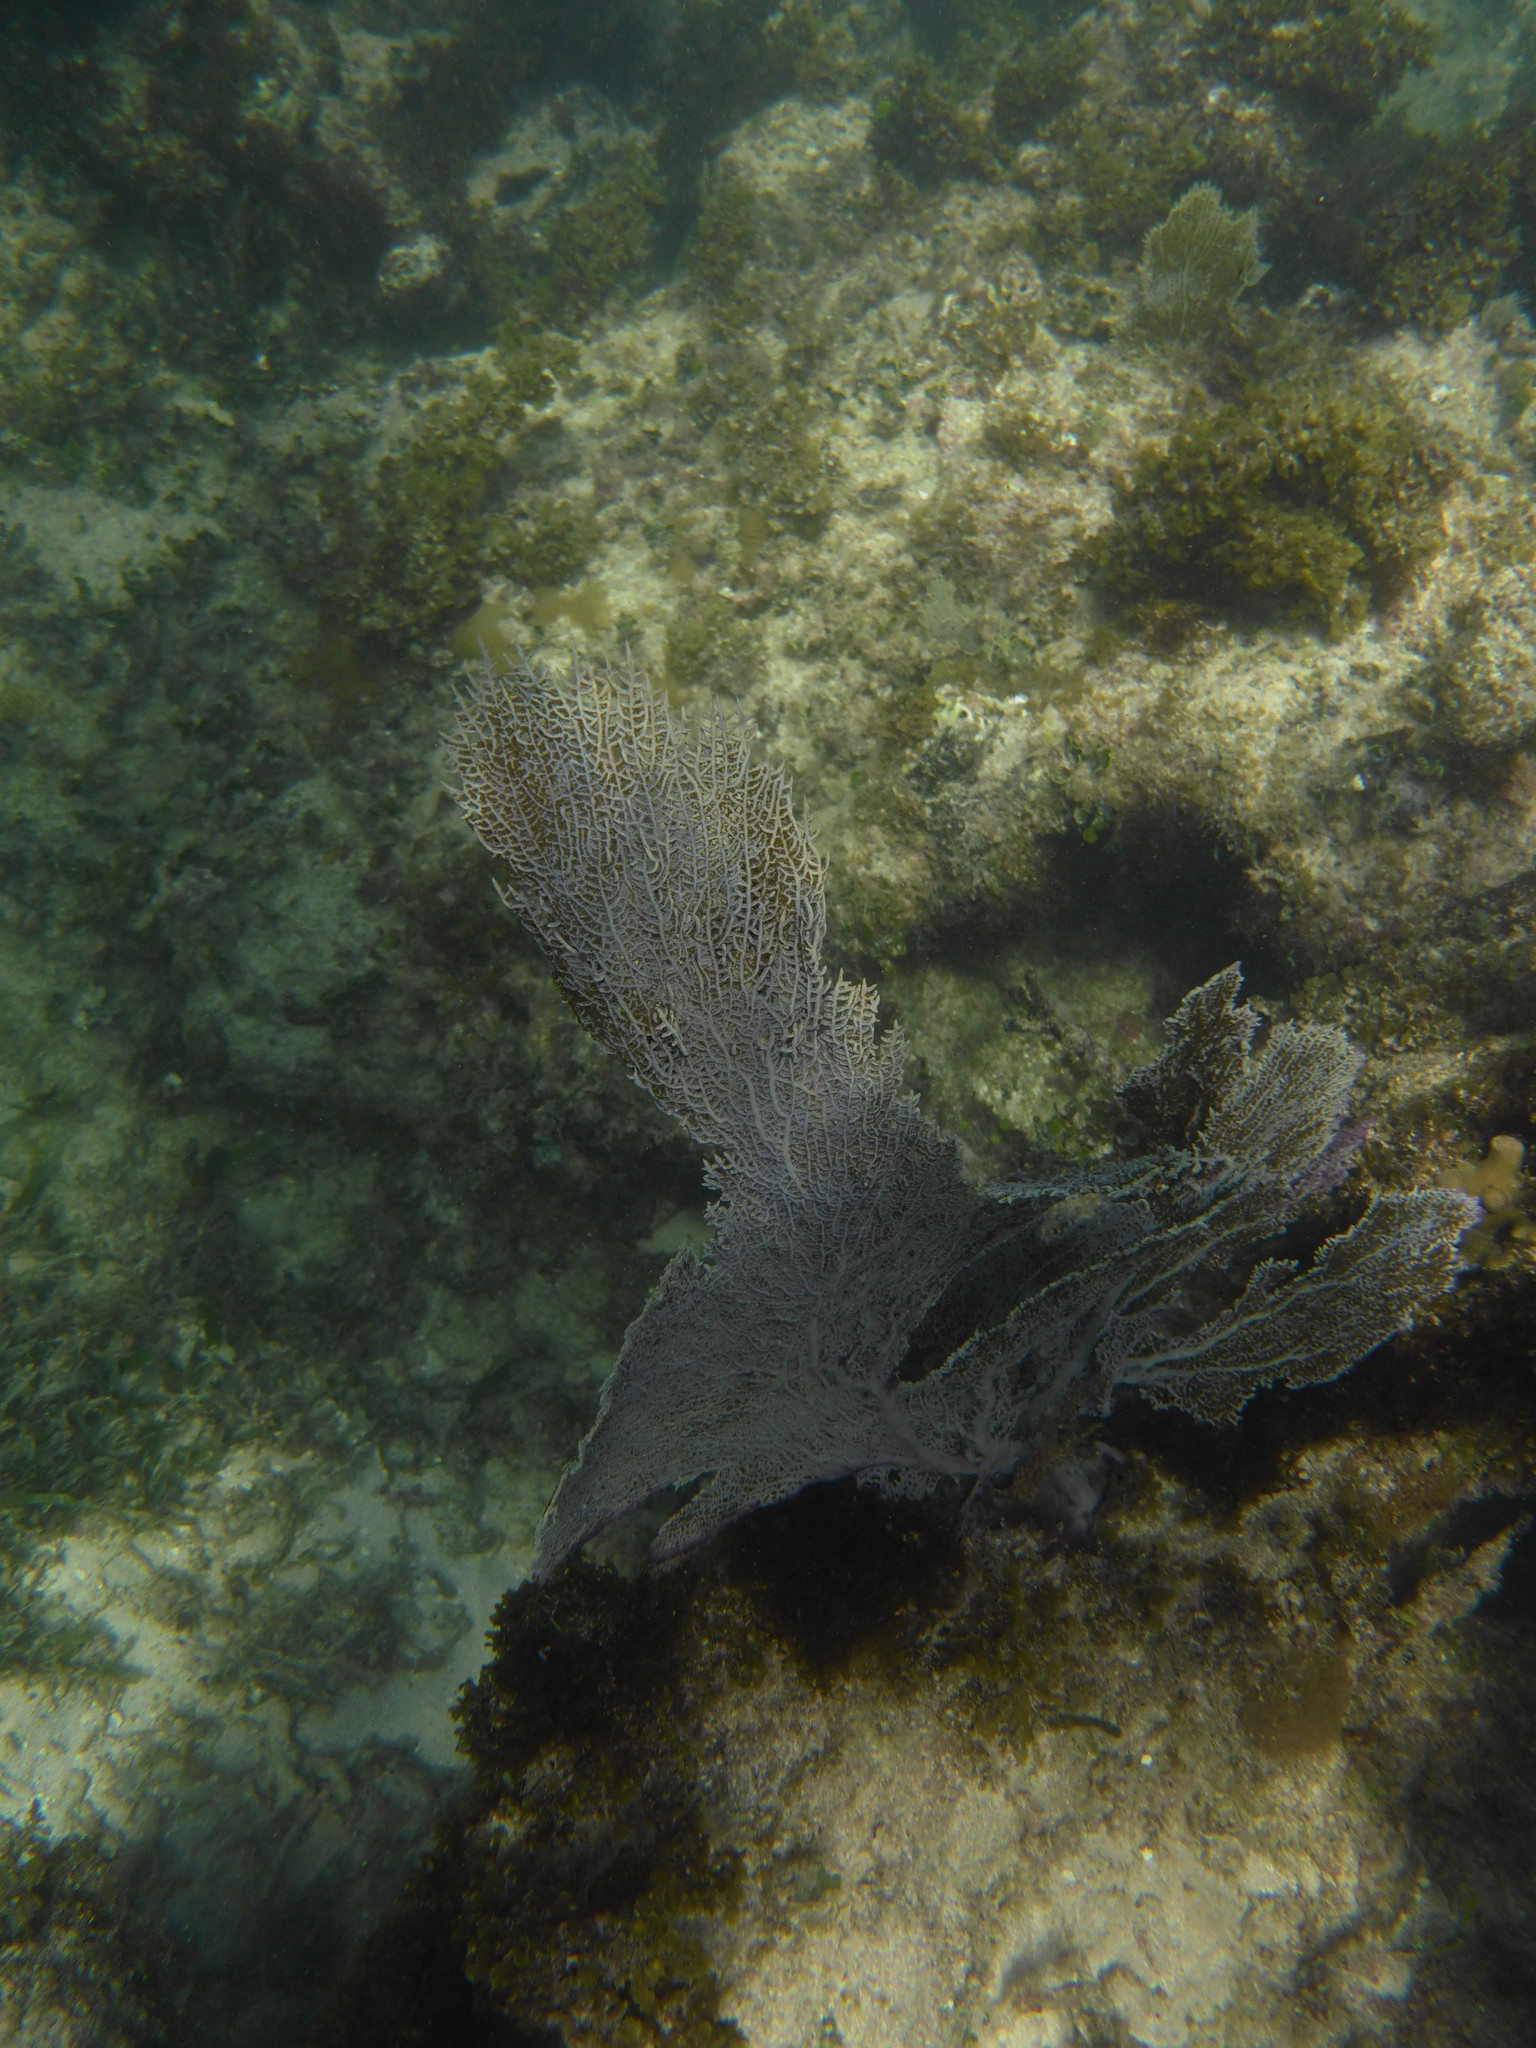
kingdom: Animalia
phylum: Cnidaria
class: Anthozoa
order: Malacalcyonacea
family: Gorgoniidae
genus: Gorgonia
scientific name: Gorgonia ventalina
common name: Common sea fan
